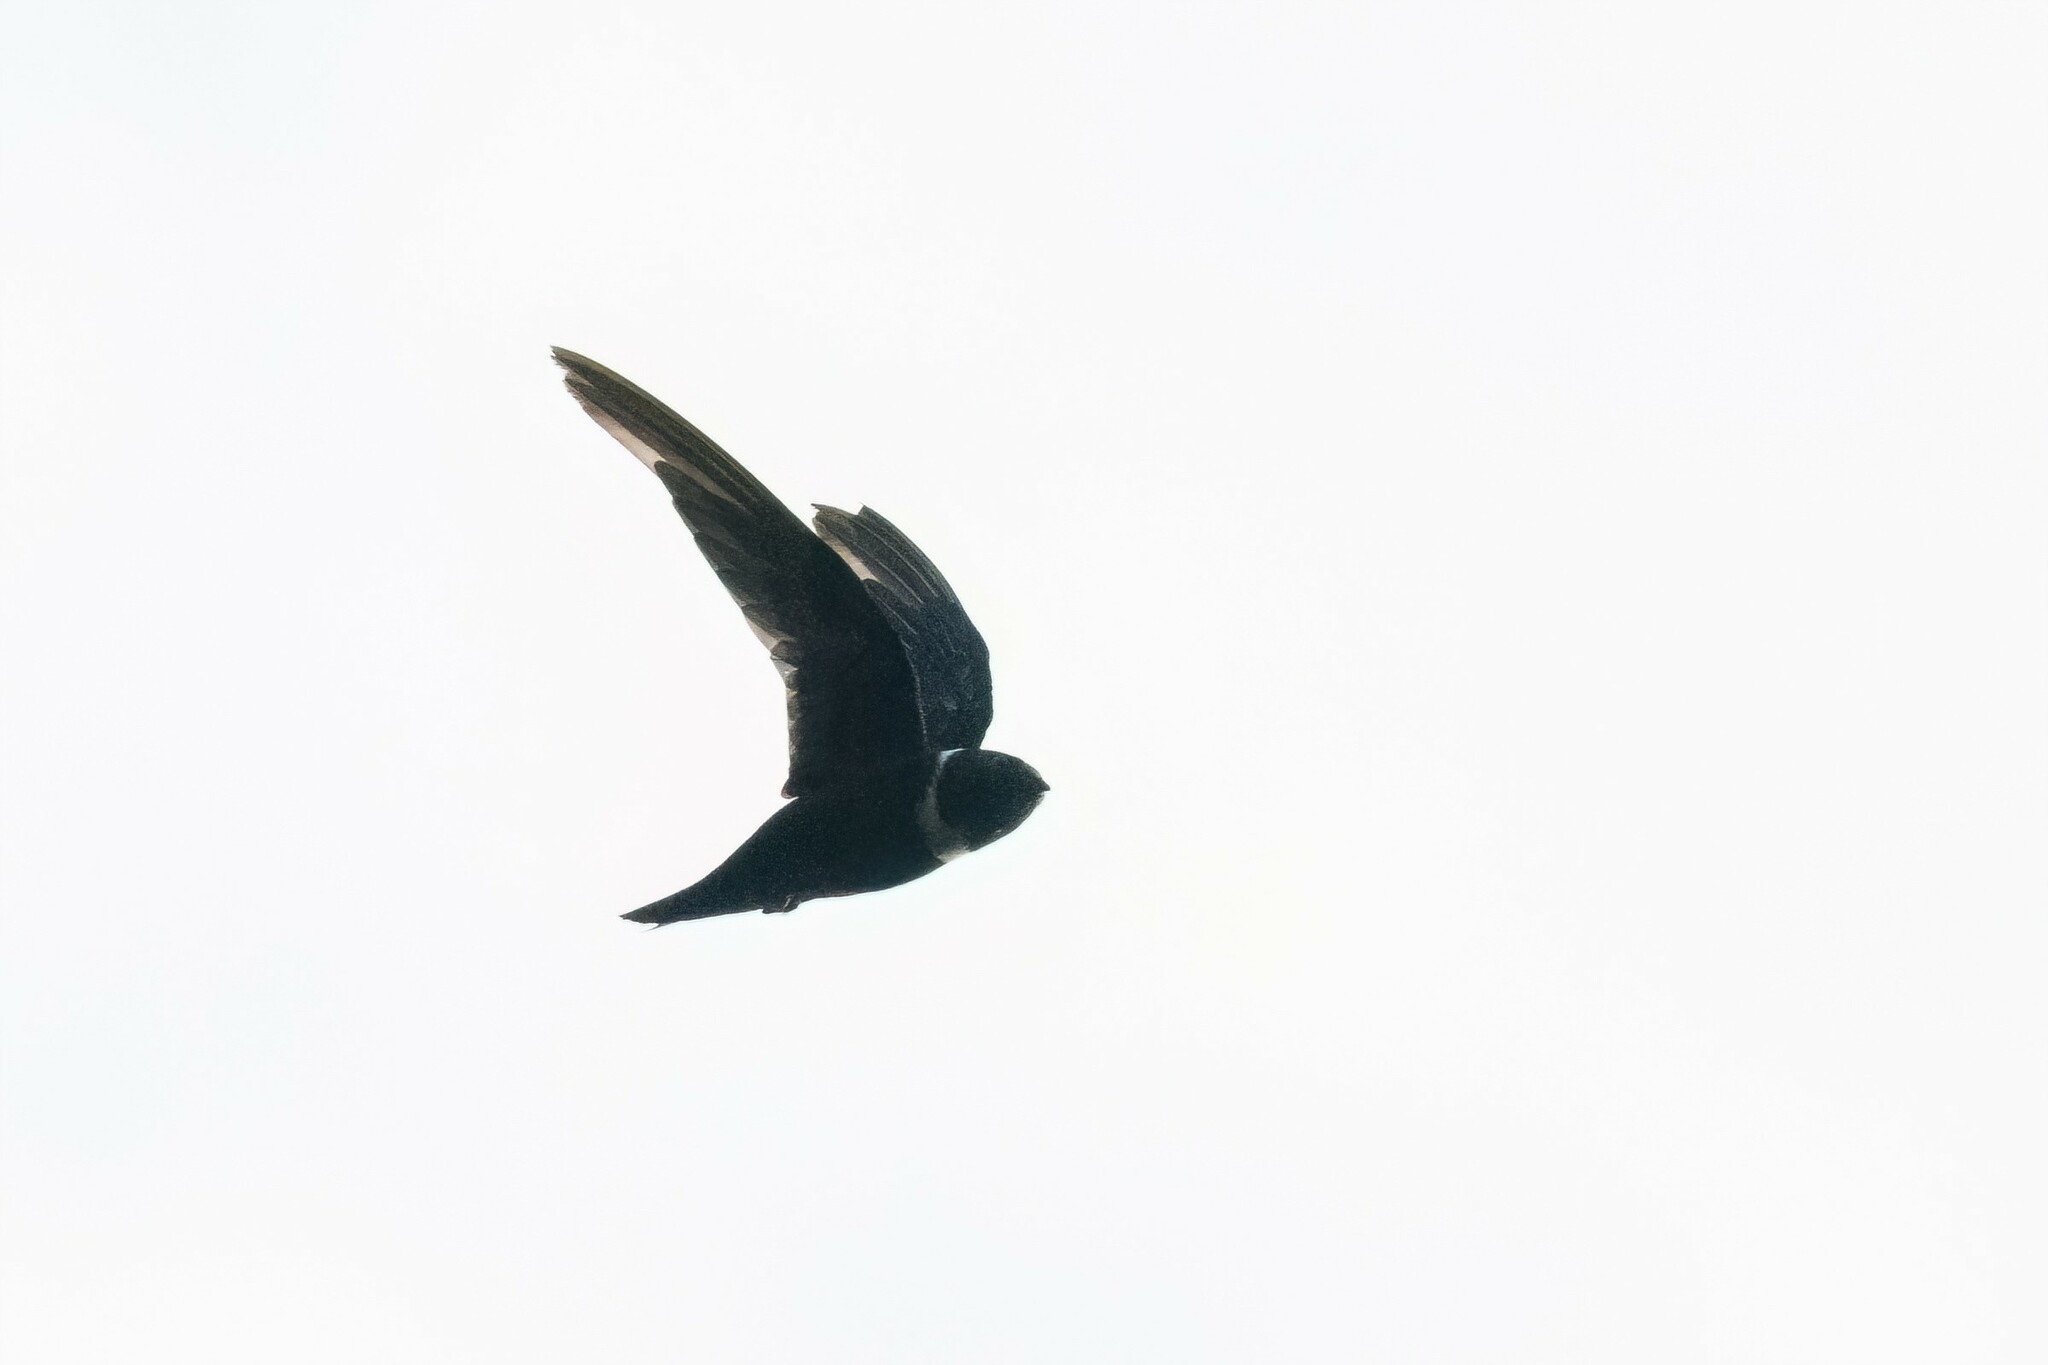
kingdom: Animalia
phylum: Chordata
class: Aves
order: Apodiformes
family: Apodidae
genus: Streptoprocne
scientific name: Streptoprocne zonaris
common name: White-collared swift
